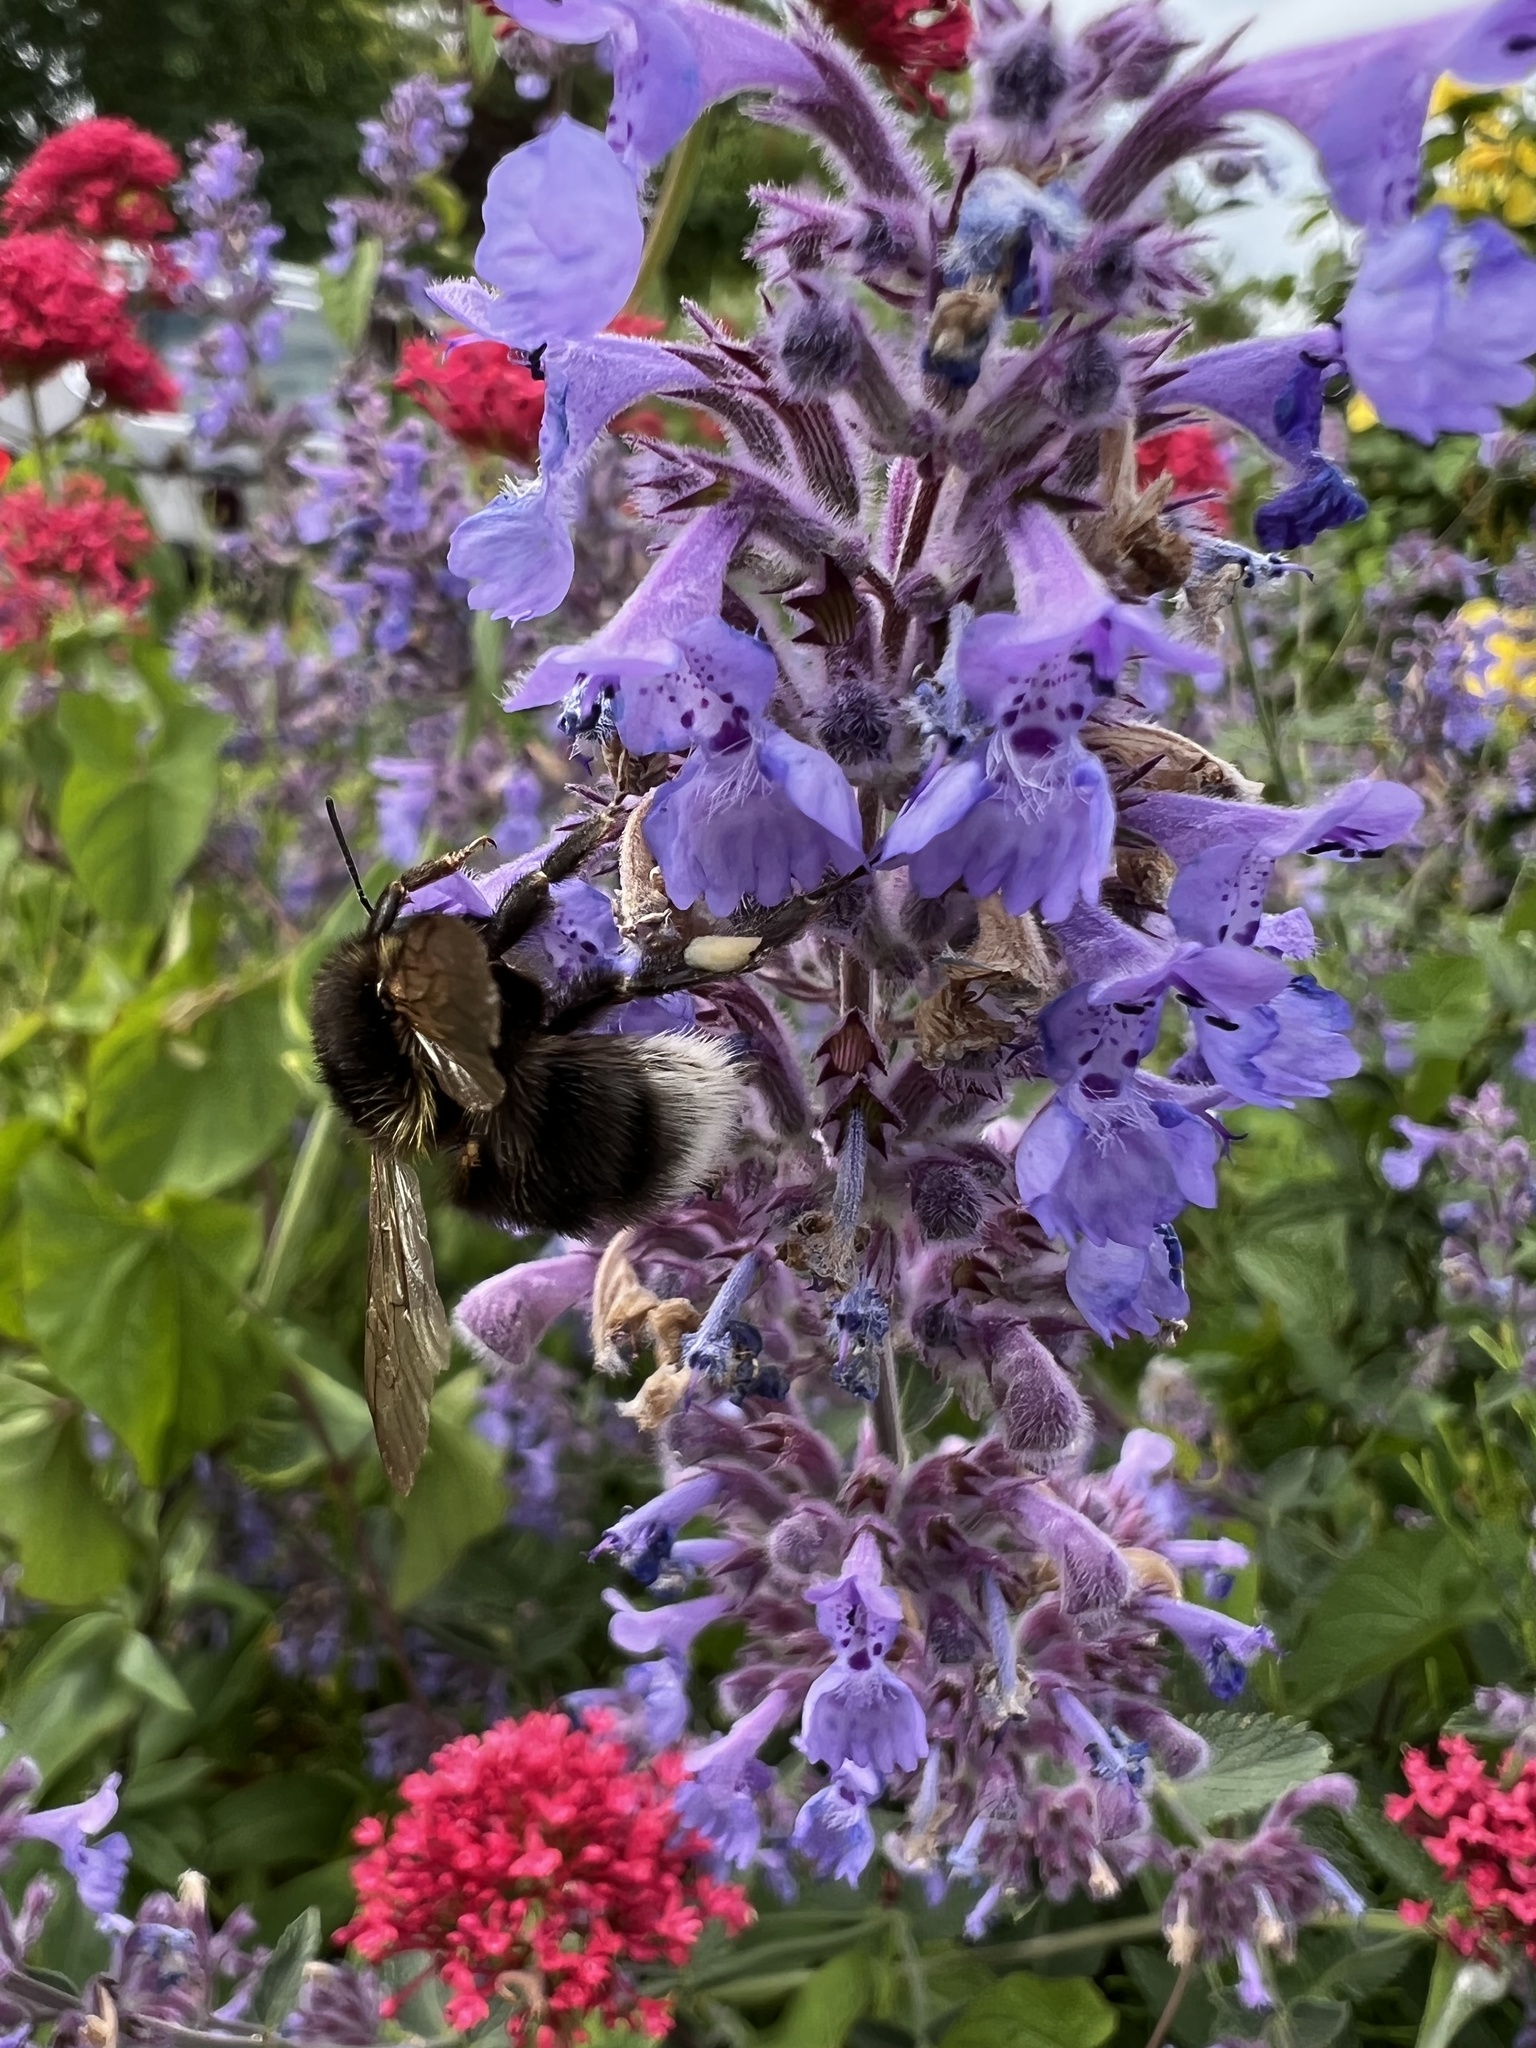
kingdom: Animalia
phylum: Arthropoda
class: Insecta
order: Hymenoptera
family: Apidae
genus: Bombus
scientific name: Bombus hortorum
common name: Garden bumblebee
